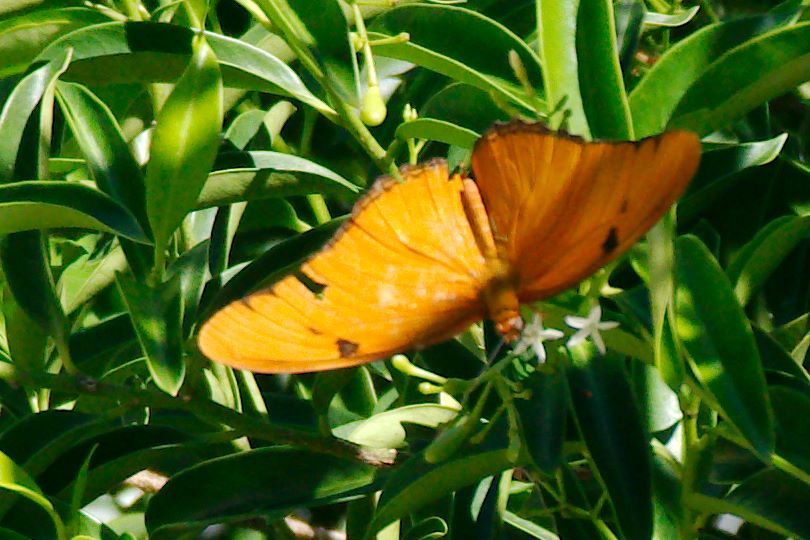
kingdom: Animalia
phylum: Arthropoda
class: Insecta
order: Lepidoptera
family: Nymphalidae
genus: Dryas
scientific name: Dryas iulia
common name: Flambeau
